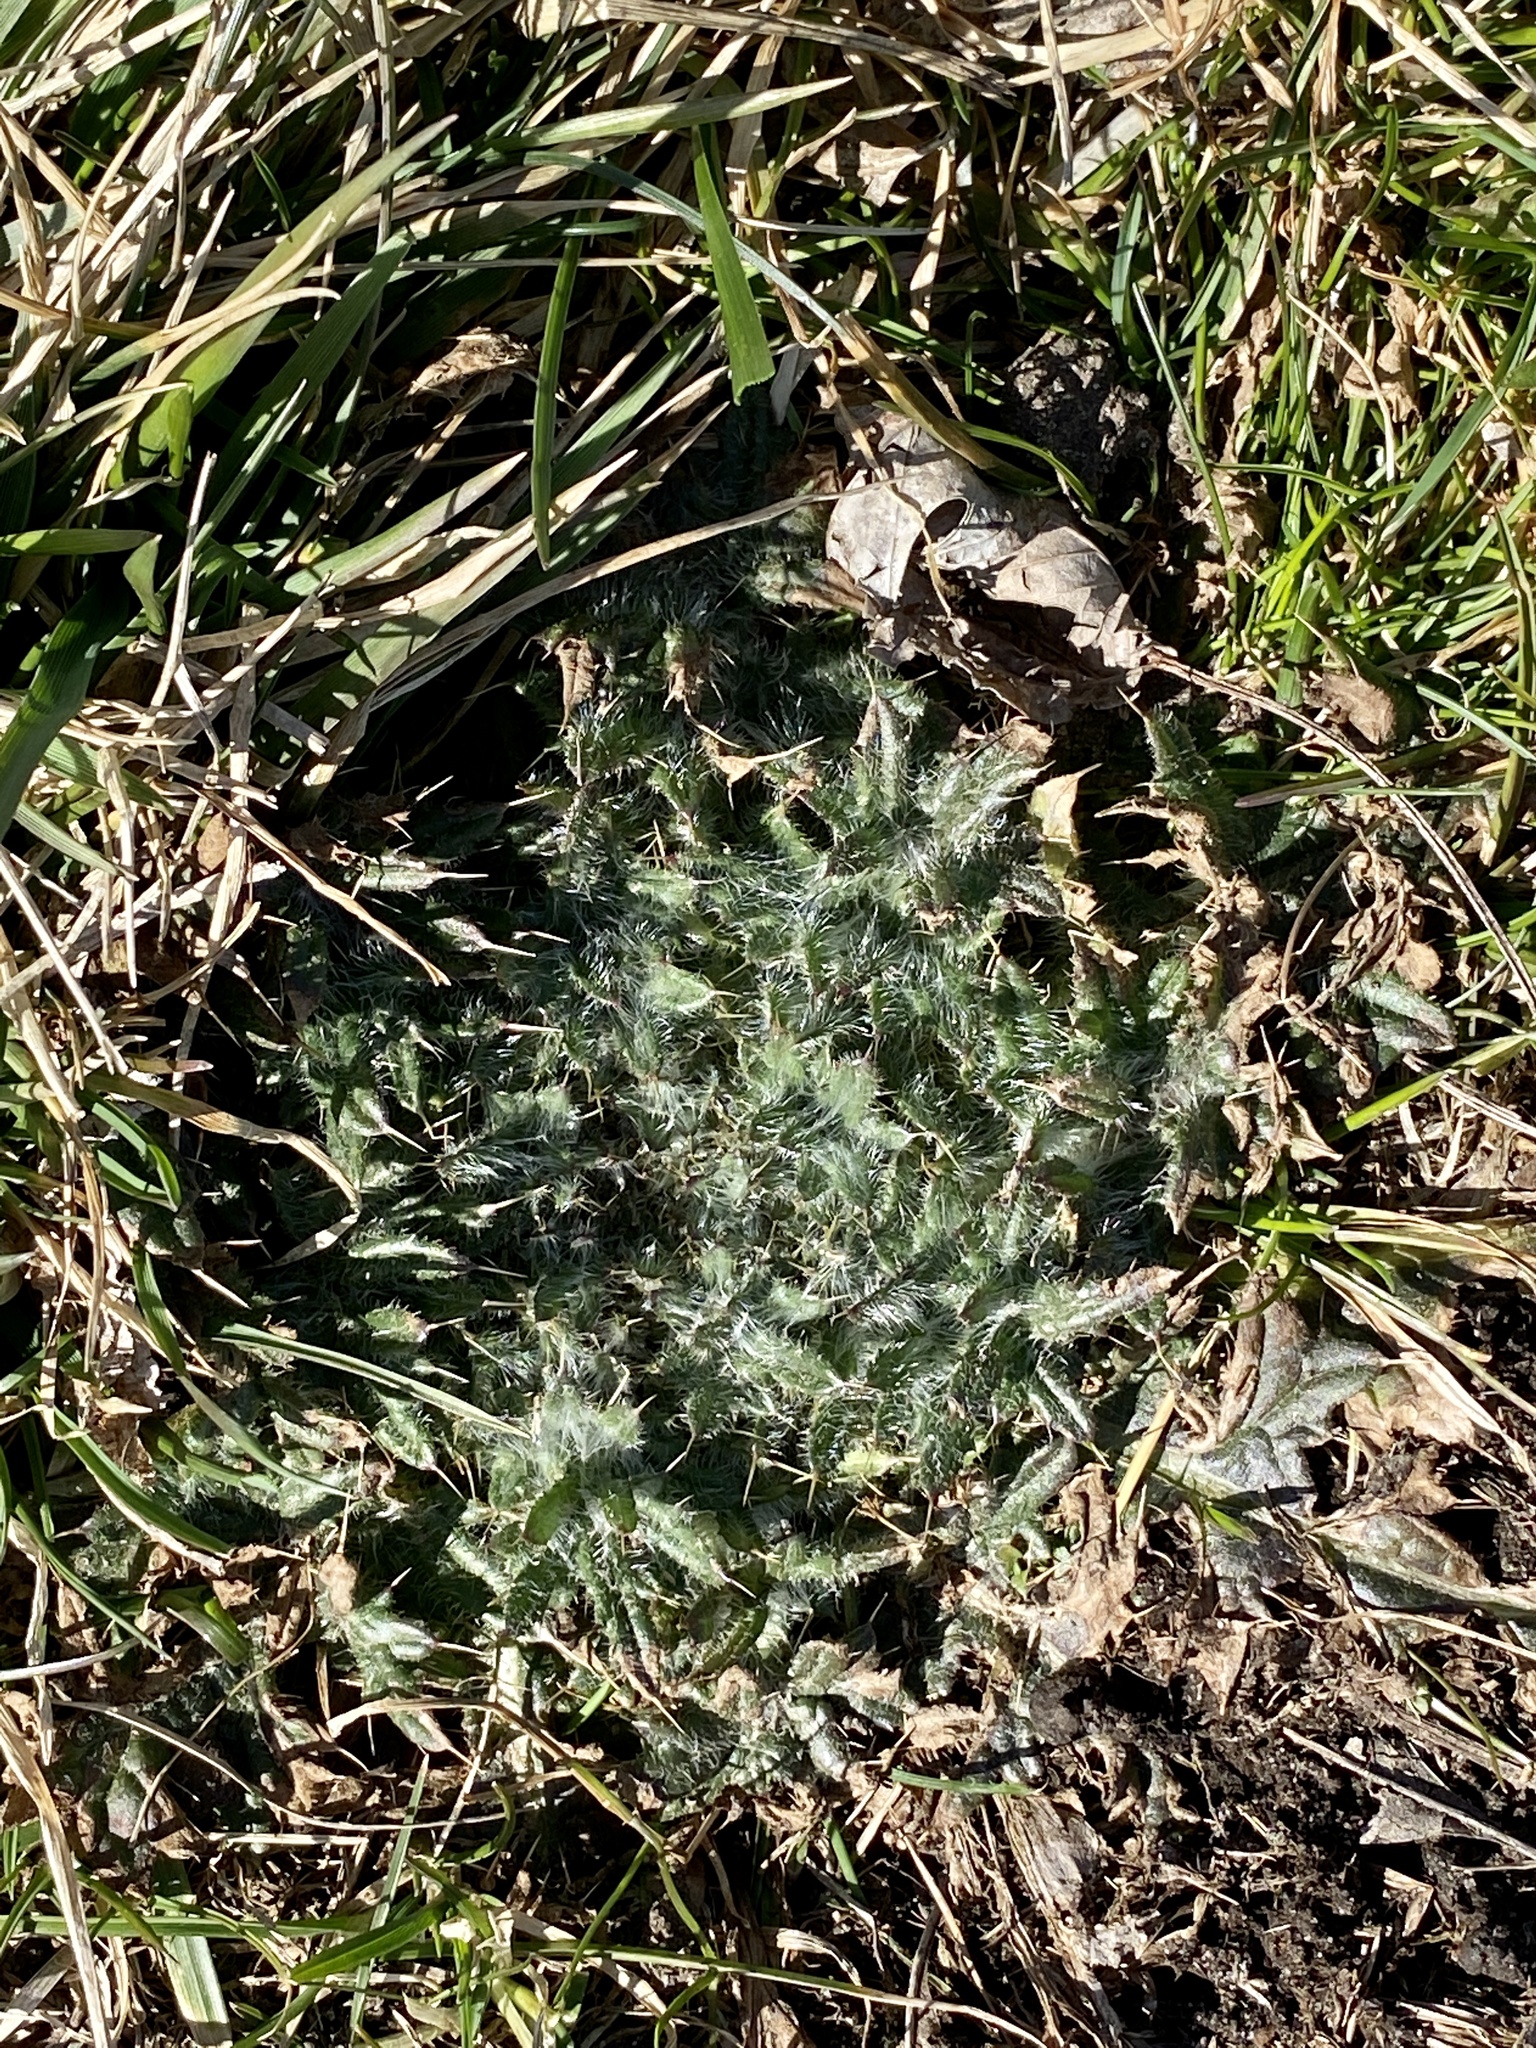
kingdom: Plantae
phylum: Tracheophyta
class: Magnoliopsida
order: Asterales
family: Asteraceae
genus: Cirsium
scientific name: Cirsium vulgare
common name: Bull thistle
